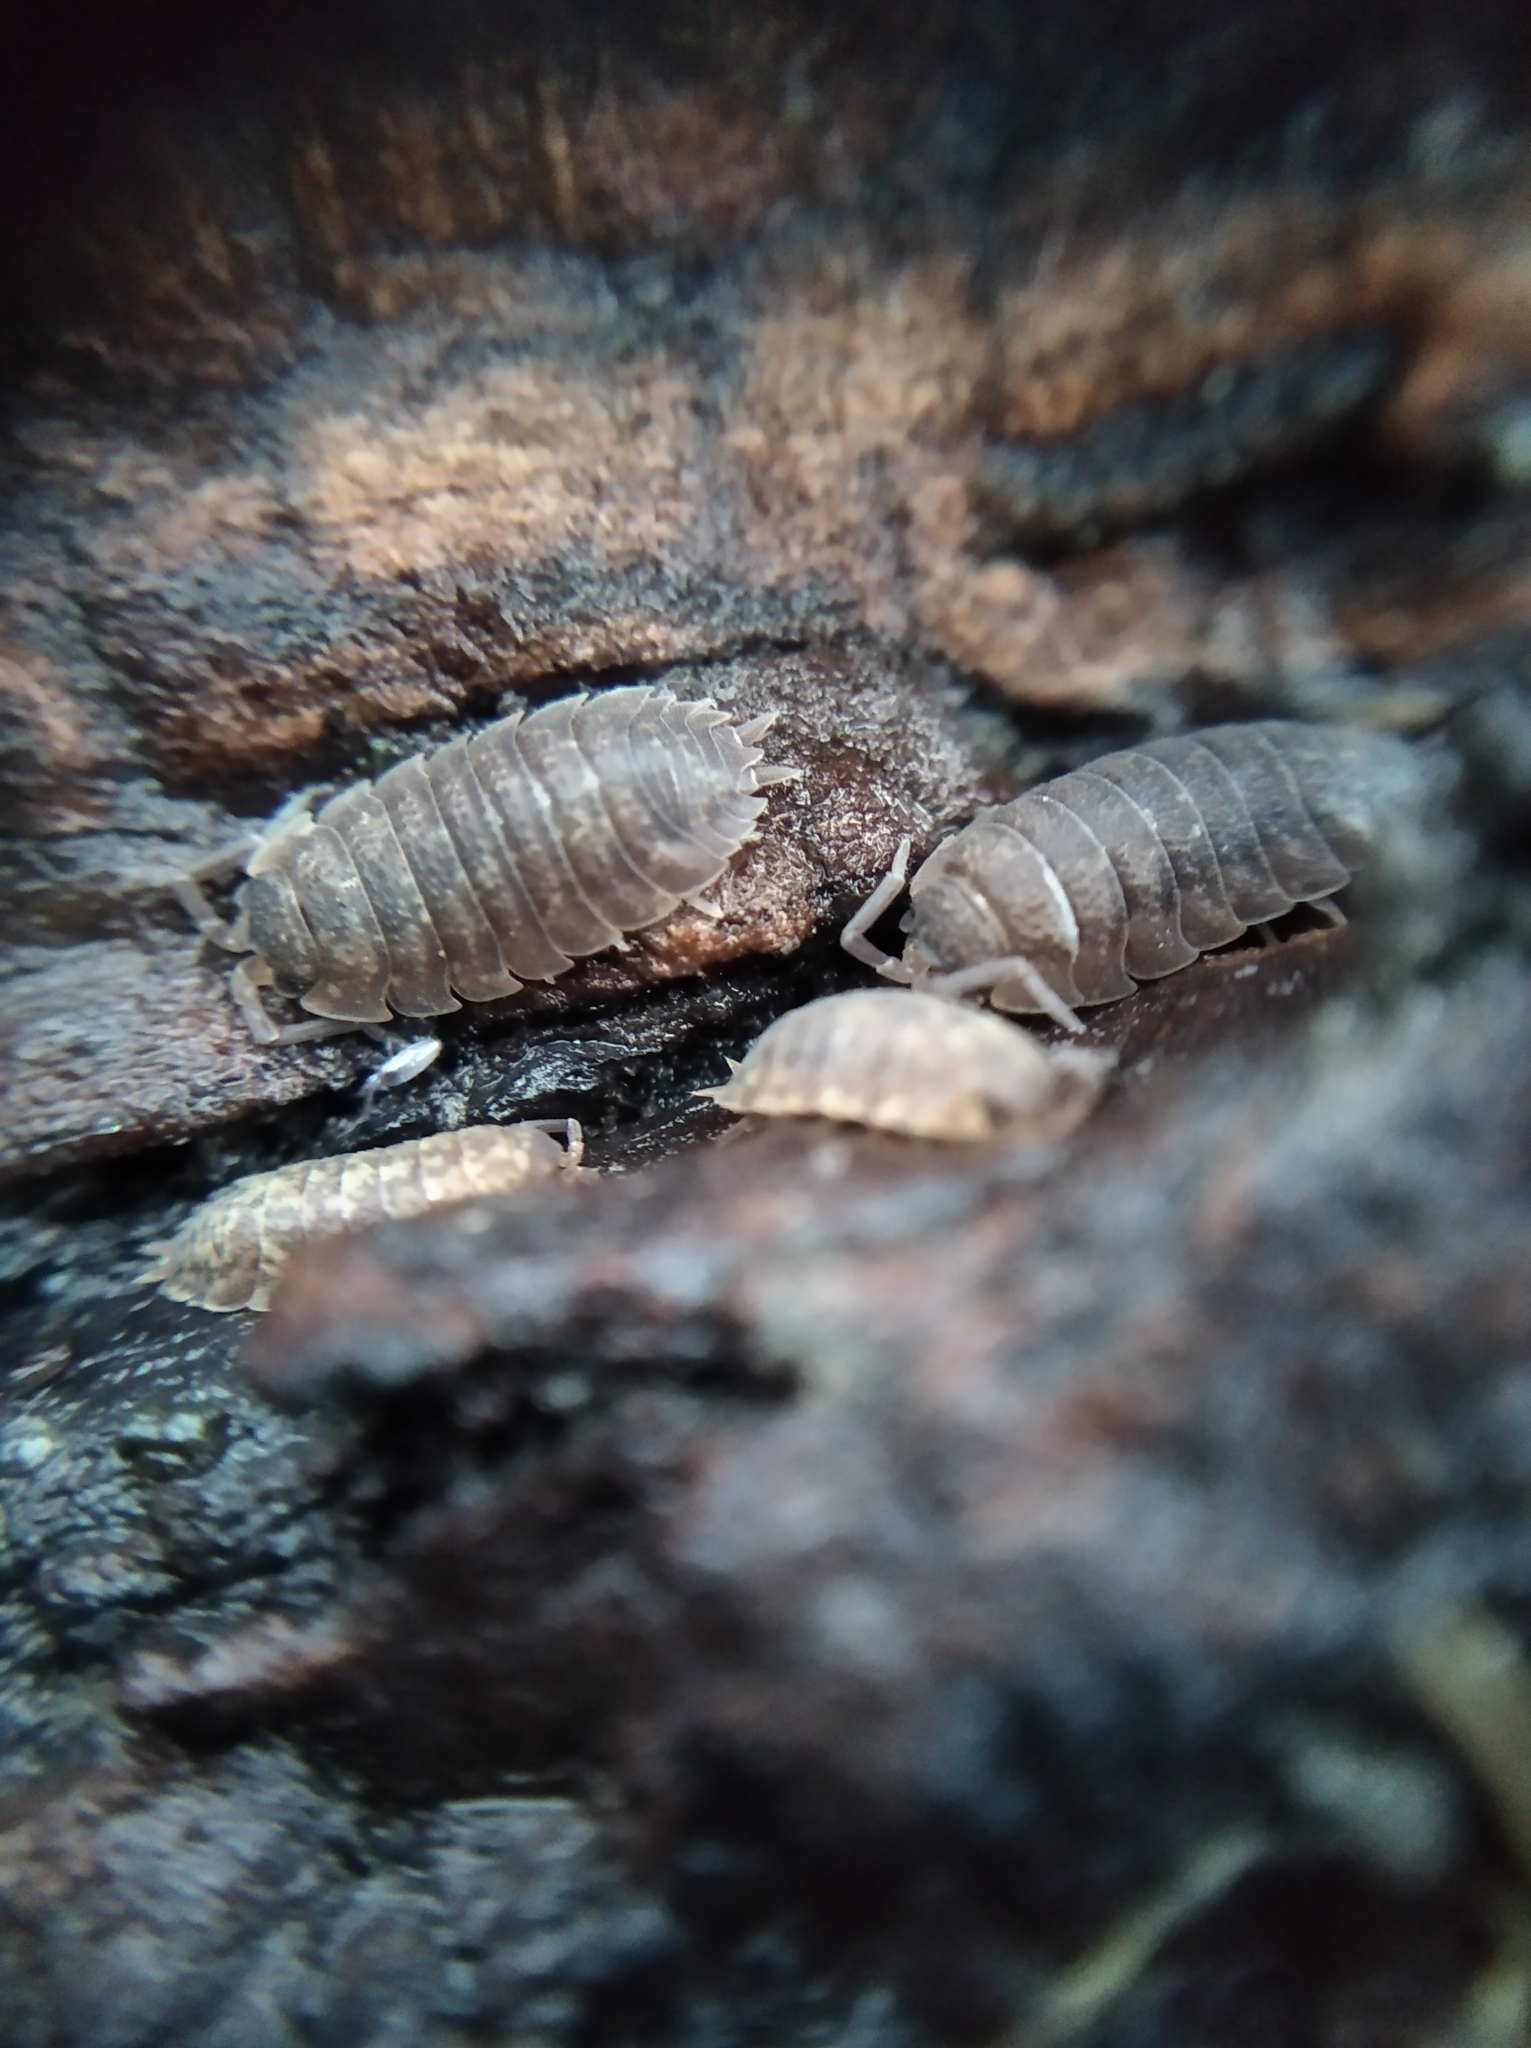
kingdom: Animalia
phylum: Arthropoda
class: Malacostraca
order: Isopoda
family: Porcellionidae
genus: Porcellio
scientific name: Porcellio scaber
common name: Common rough woodlouse
